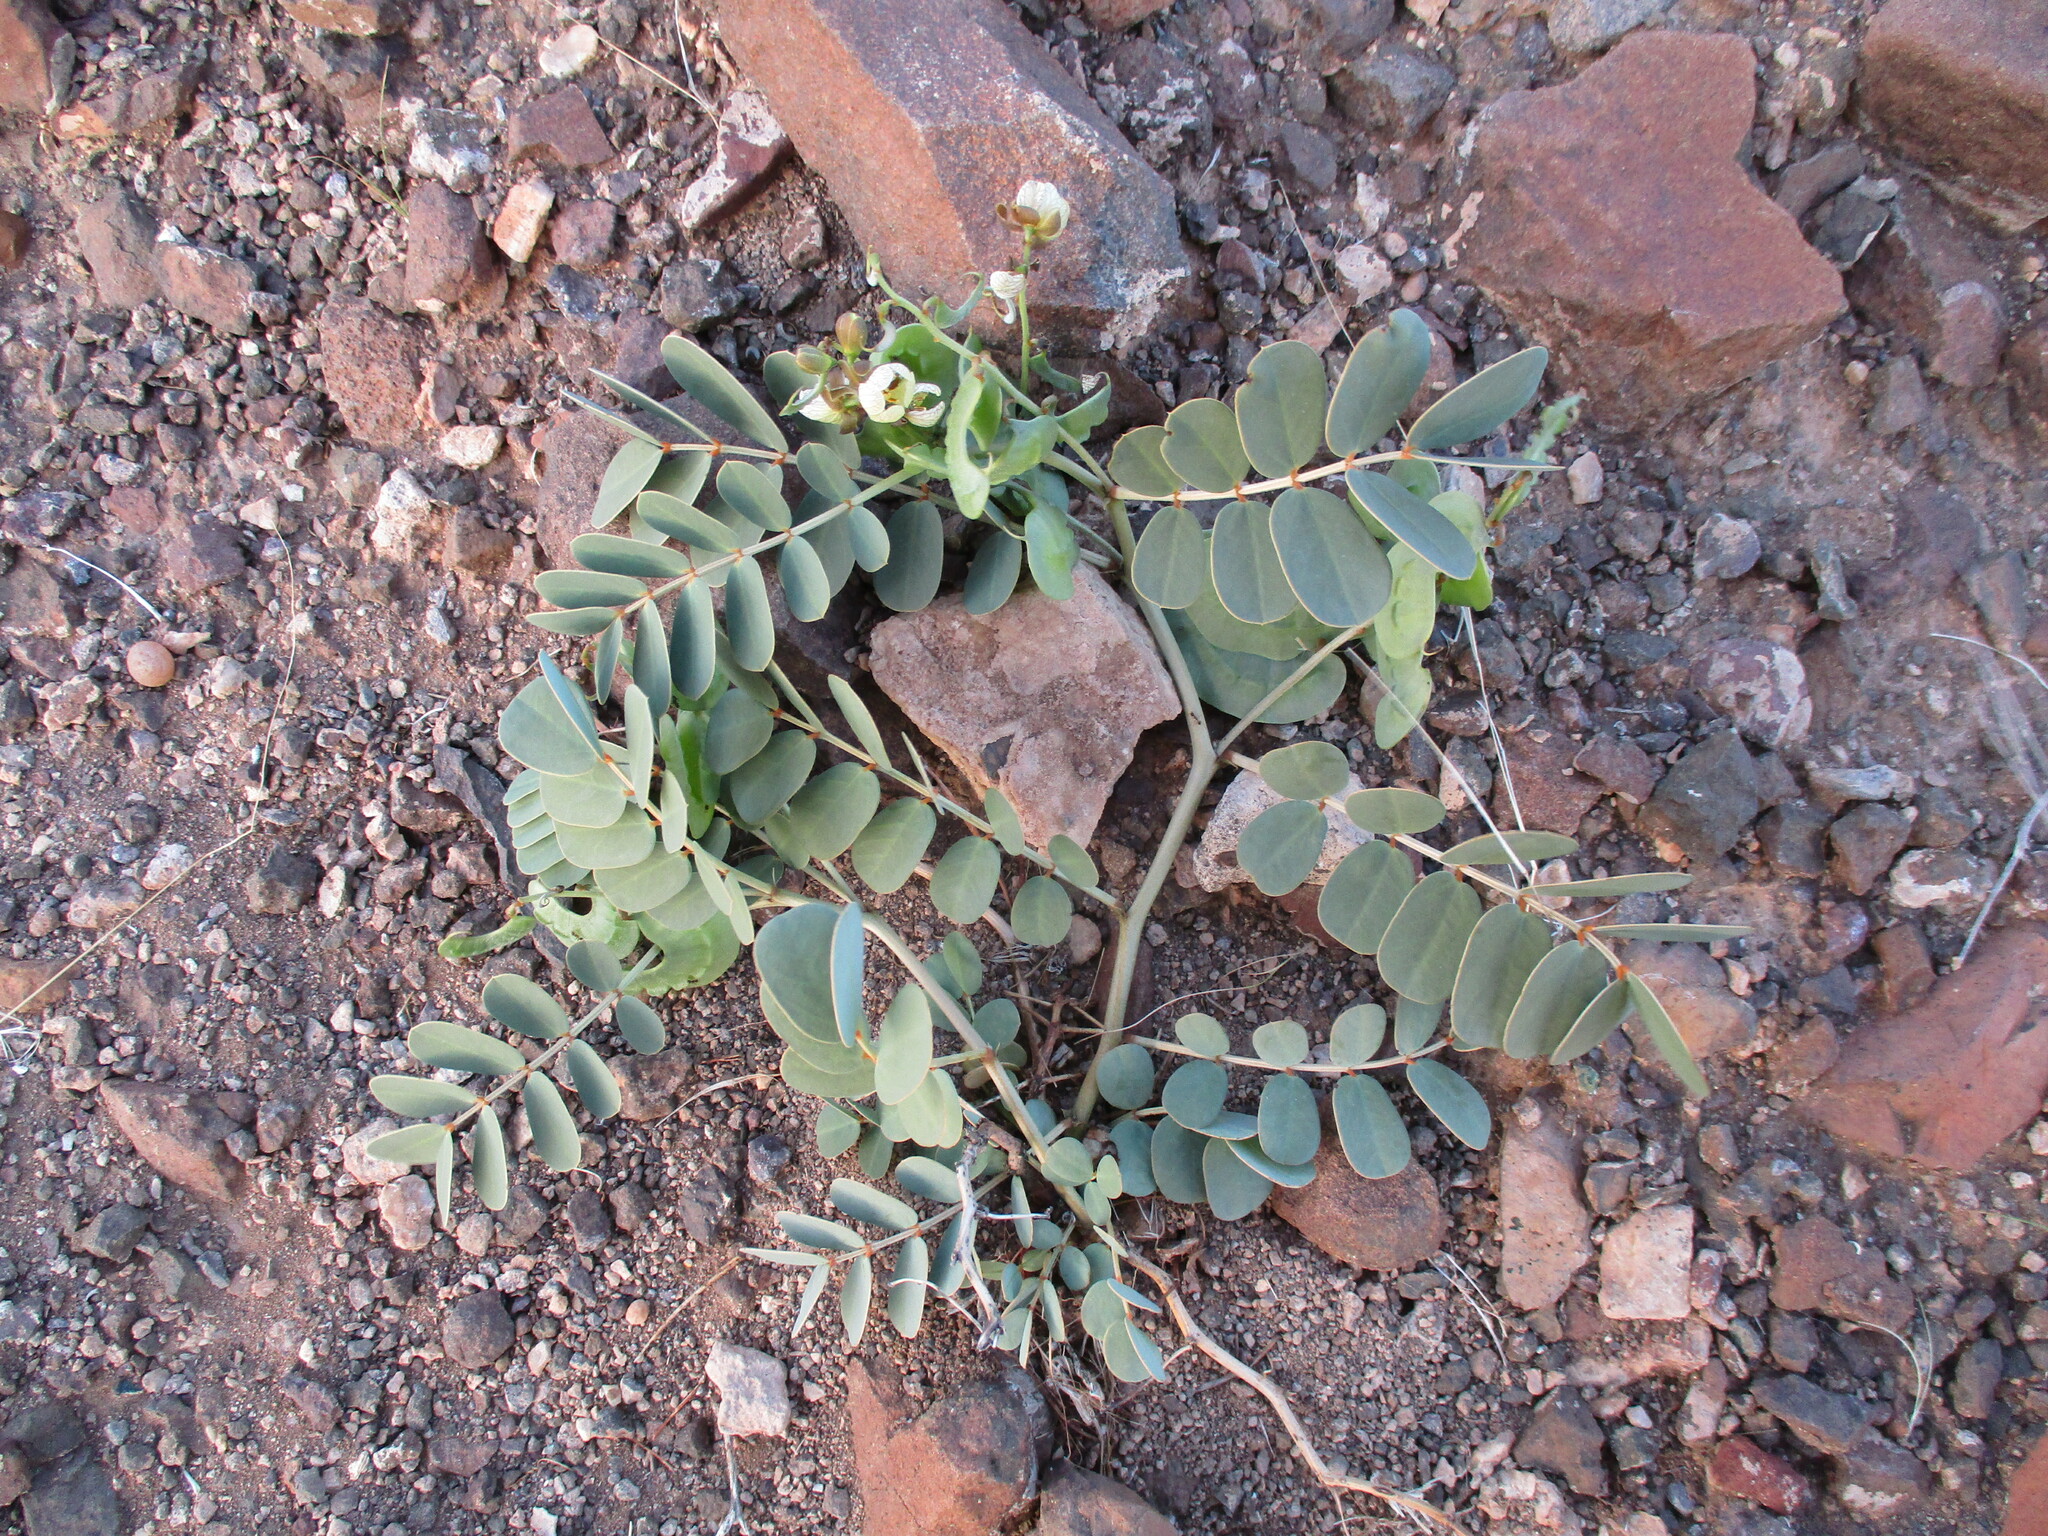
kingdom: Plantae
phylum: Tracheophyta
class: Magnoliopsida
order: Fabales
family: Fabaceae
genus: Senna
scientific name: Senna italica
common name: Port royal senna
